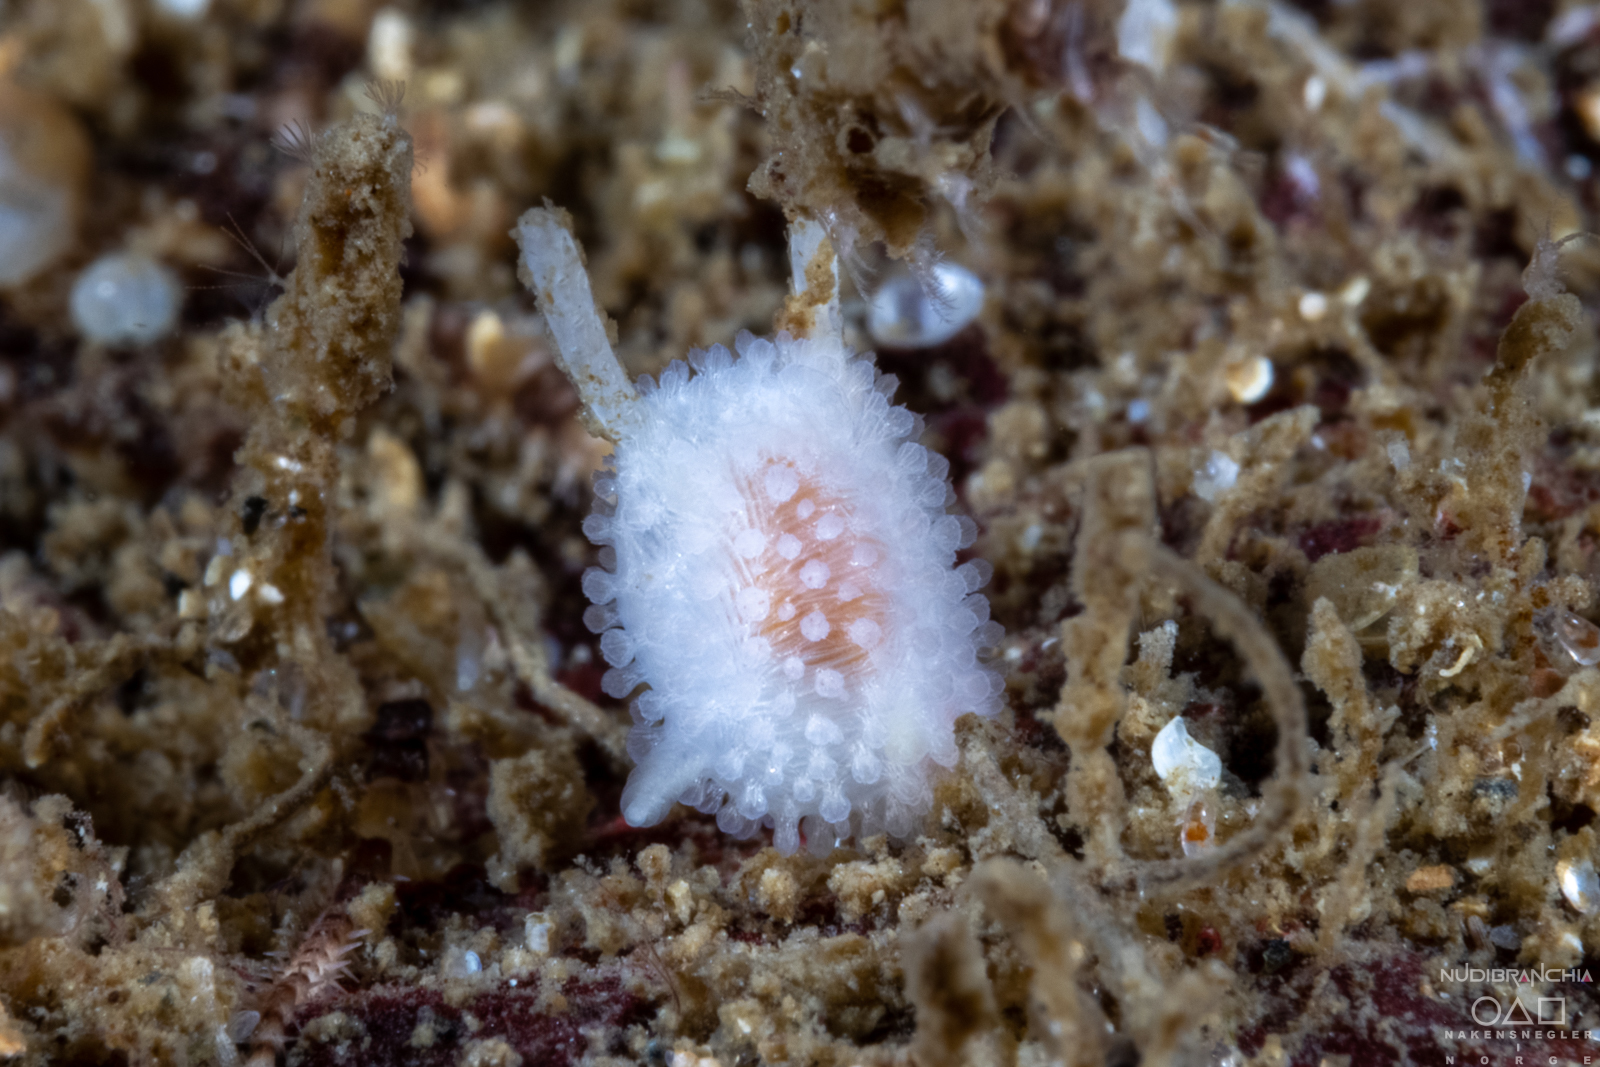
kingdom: Animalia
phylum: Mollusca
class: Gastropoda
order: Nudibranchia
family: Onchidorididae
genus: Onchidoris
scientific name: Onchidoris muricata
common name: Rough doris
